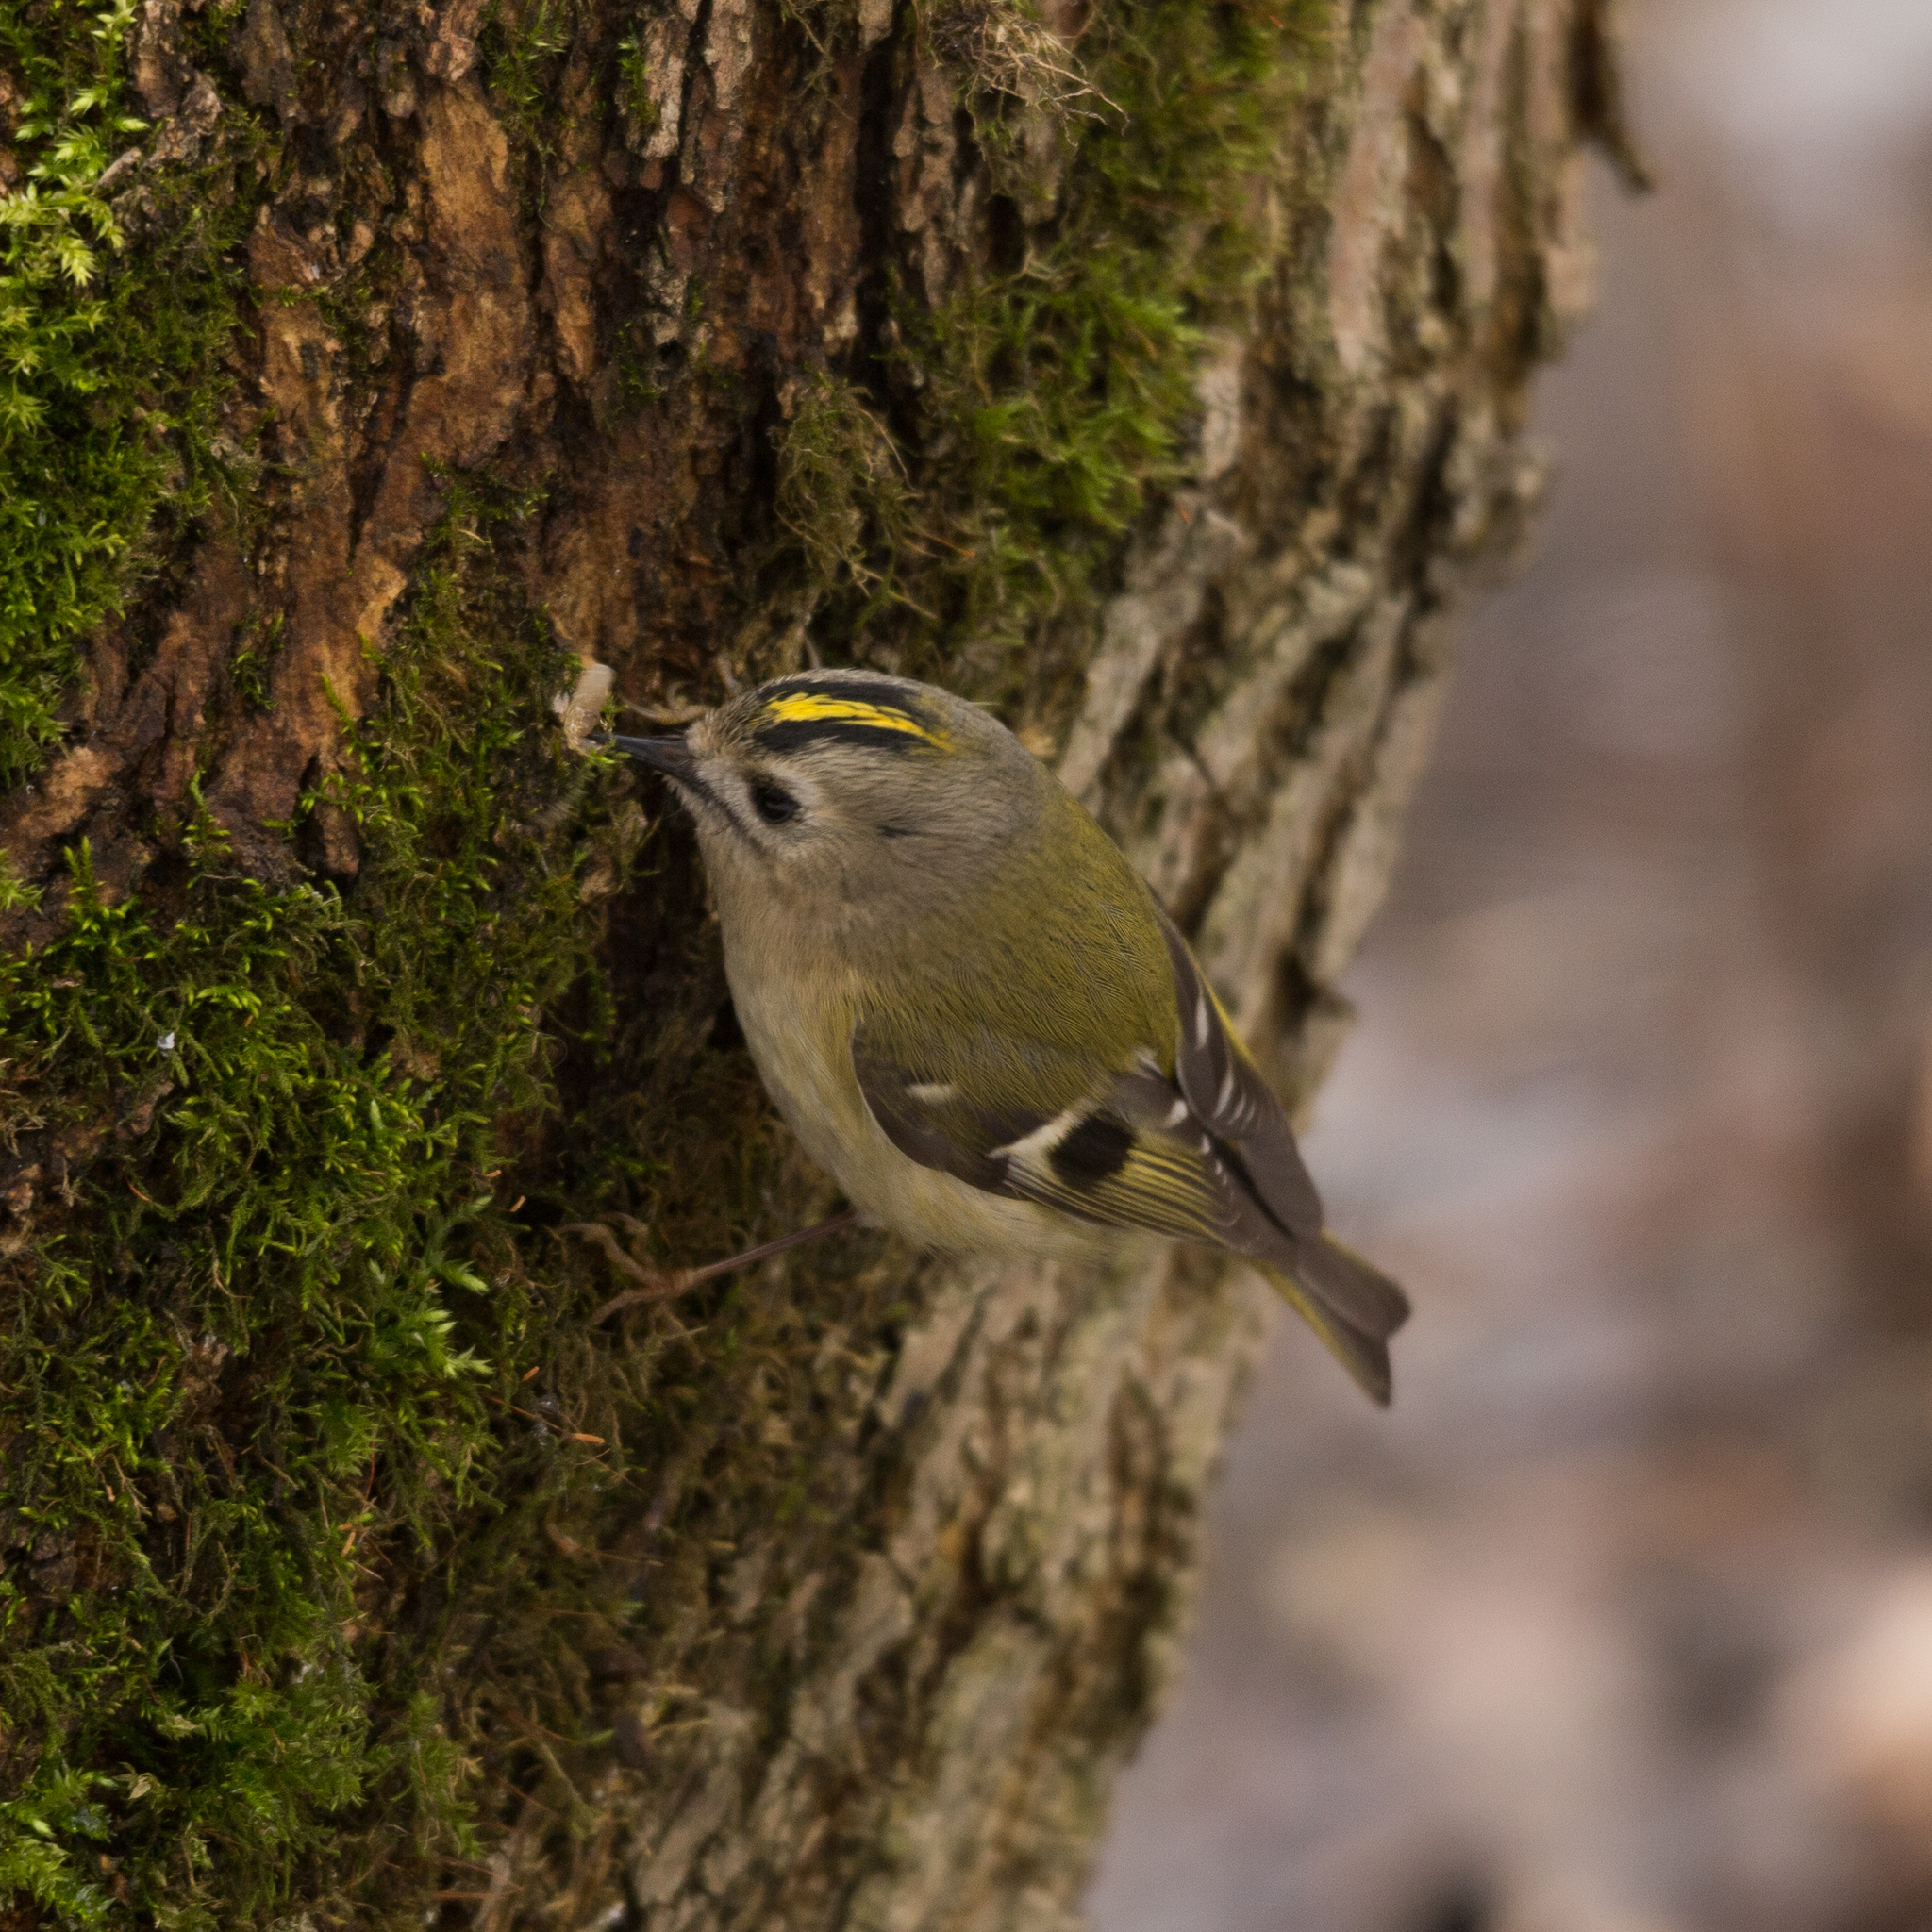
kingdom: Animalia
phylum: Chordata
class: Aves
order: Passeriformes
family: Regulidae
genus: Regulus
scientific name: Regulus regulus
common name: Goldcrest
